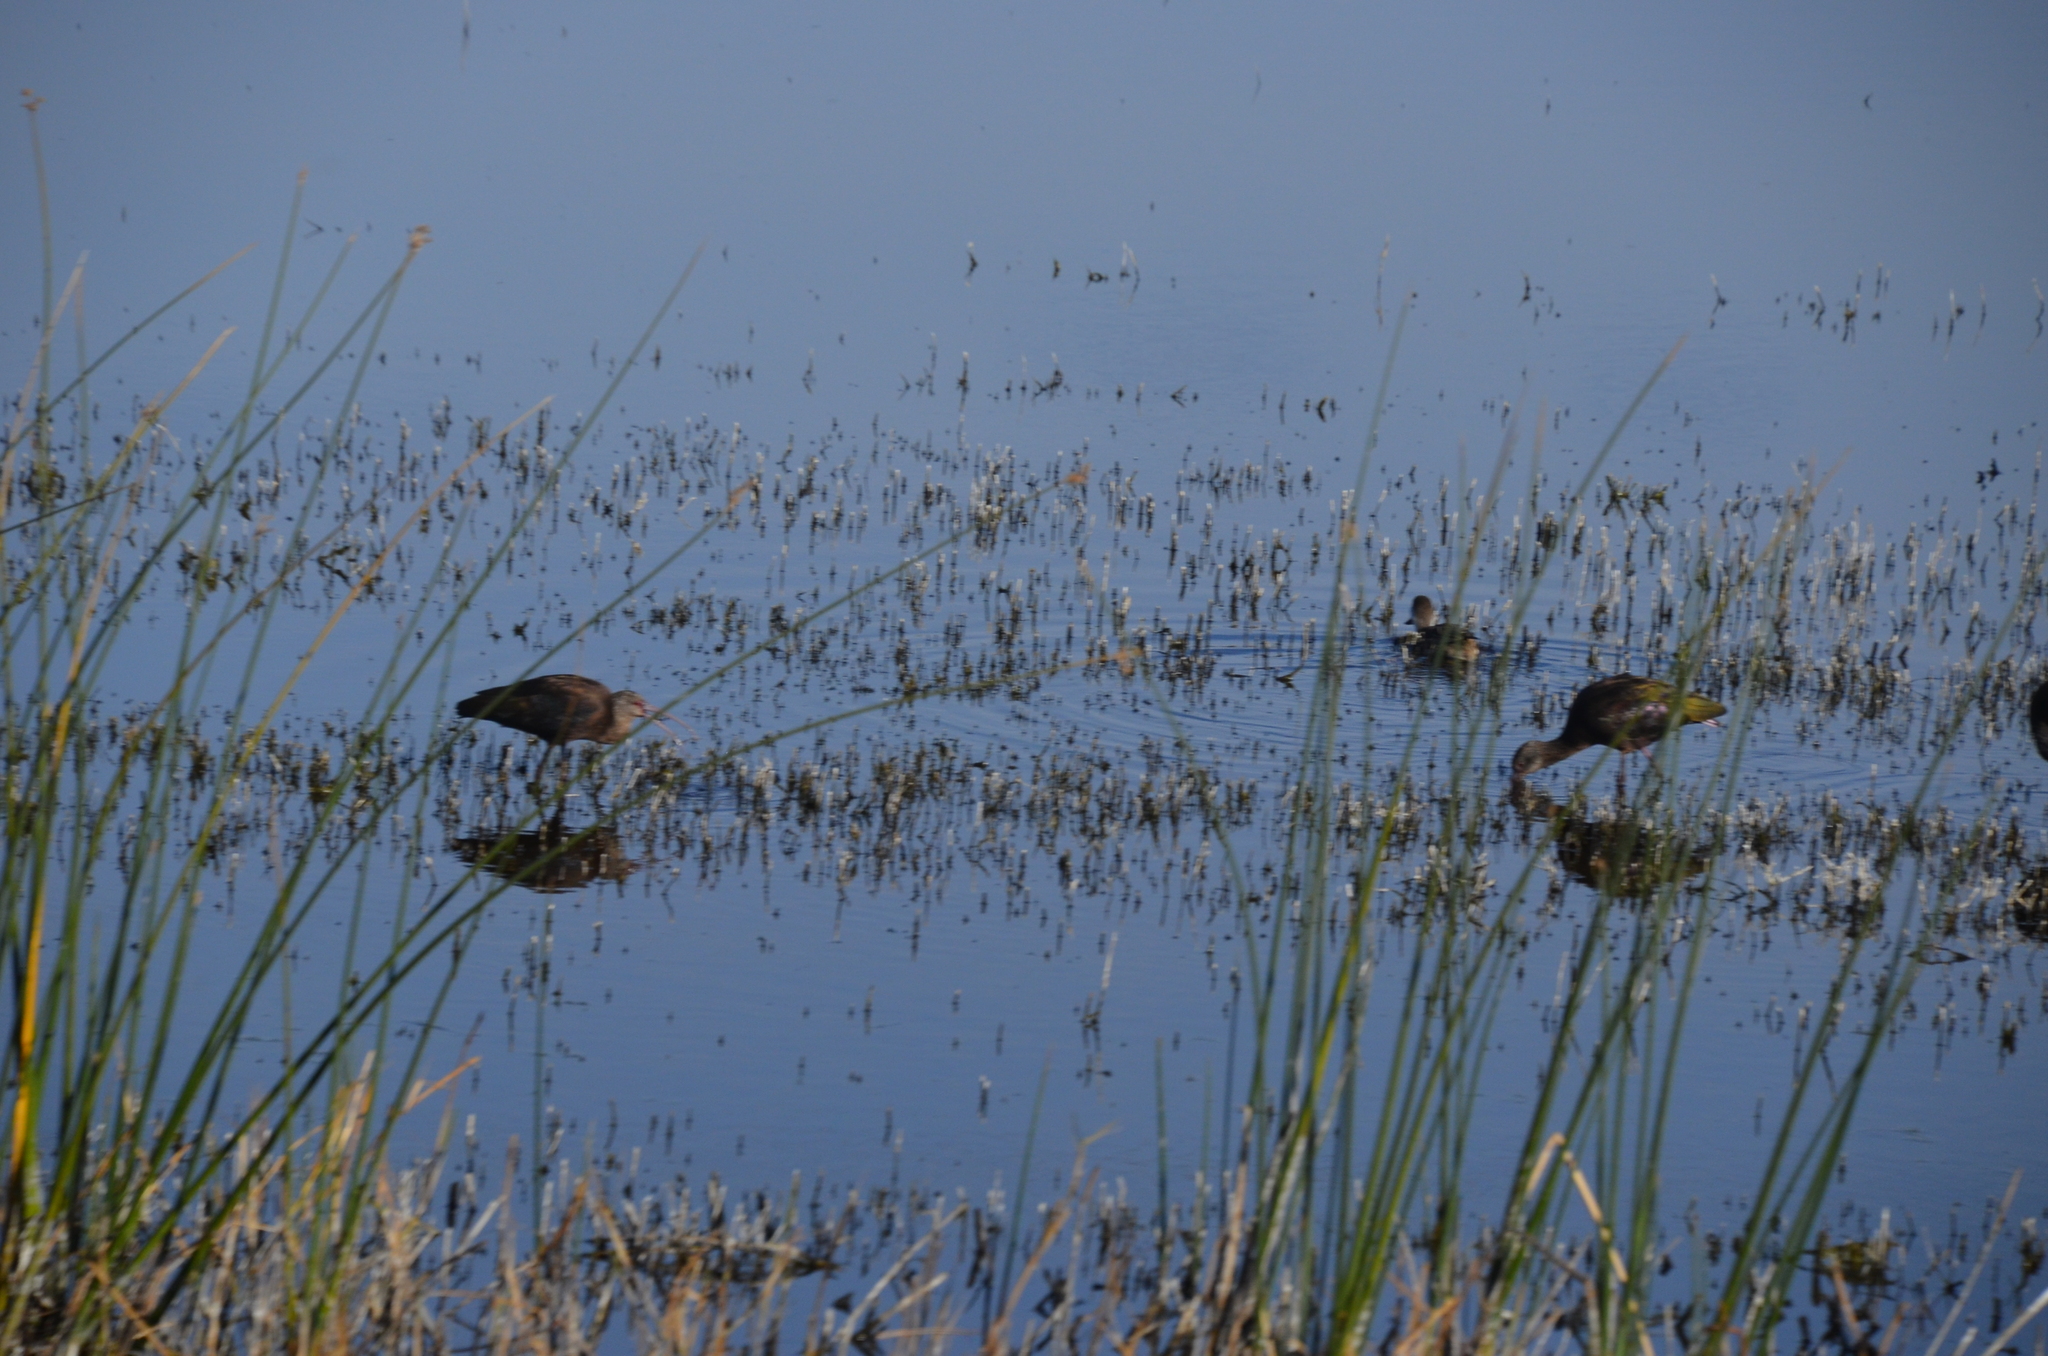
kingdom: Animalia
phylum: Chordata
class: Aves
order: Pelecaniformes
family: Threskiornithidae
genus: Plegadis
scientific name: Plegadis chihi
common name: White-faced ibis
